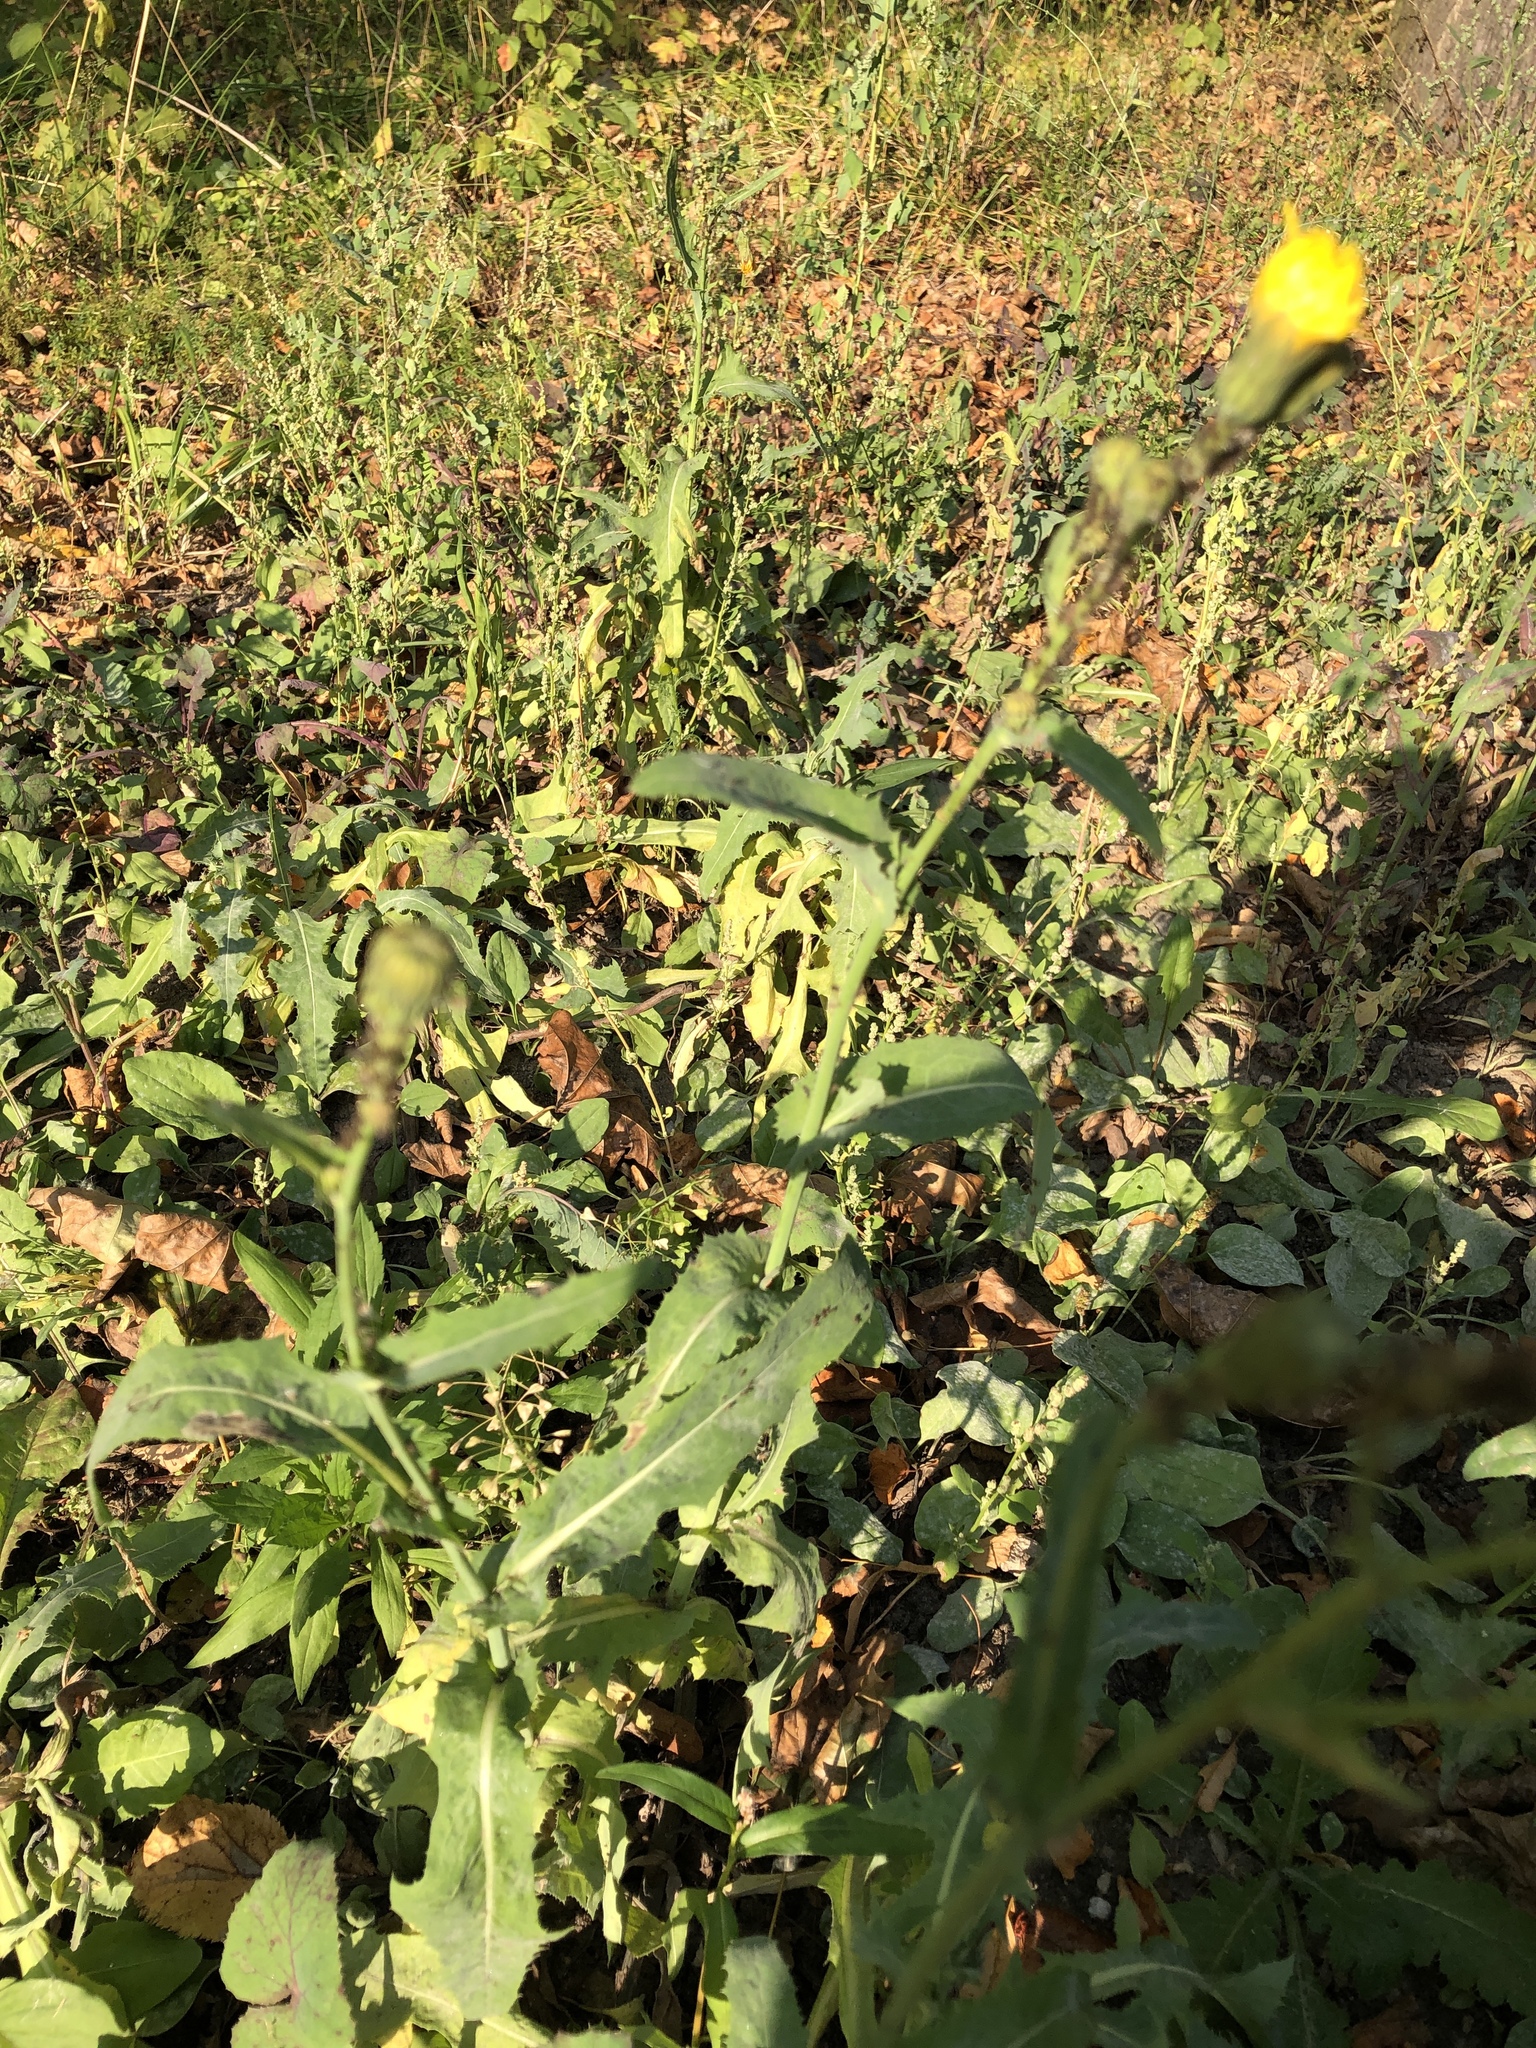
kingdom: Plantae
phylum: Tracheophyta
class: Magnoliopsida
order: Asterales
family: Asteraceae
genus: Sonchus
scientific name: Sonchus arvensis
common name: Perennial sow-thistle
